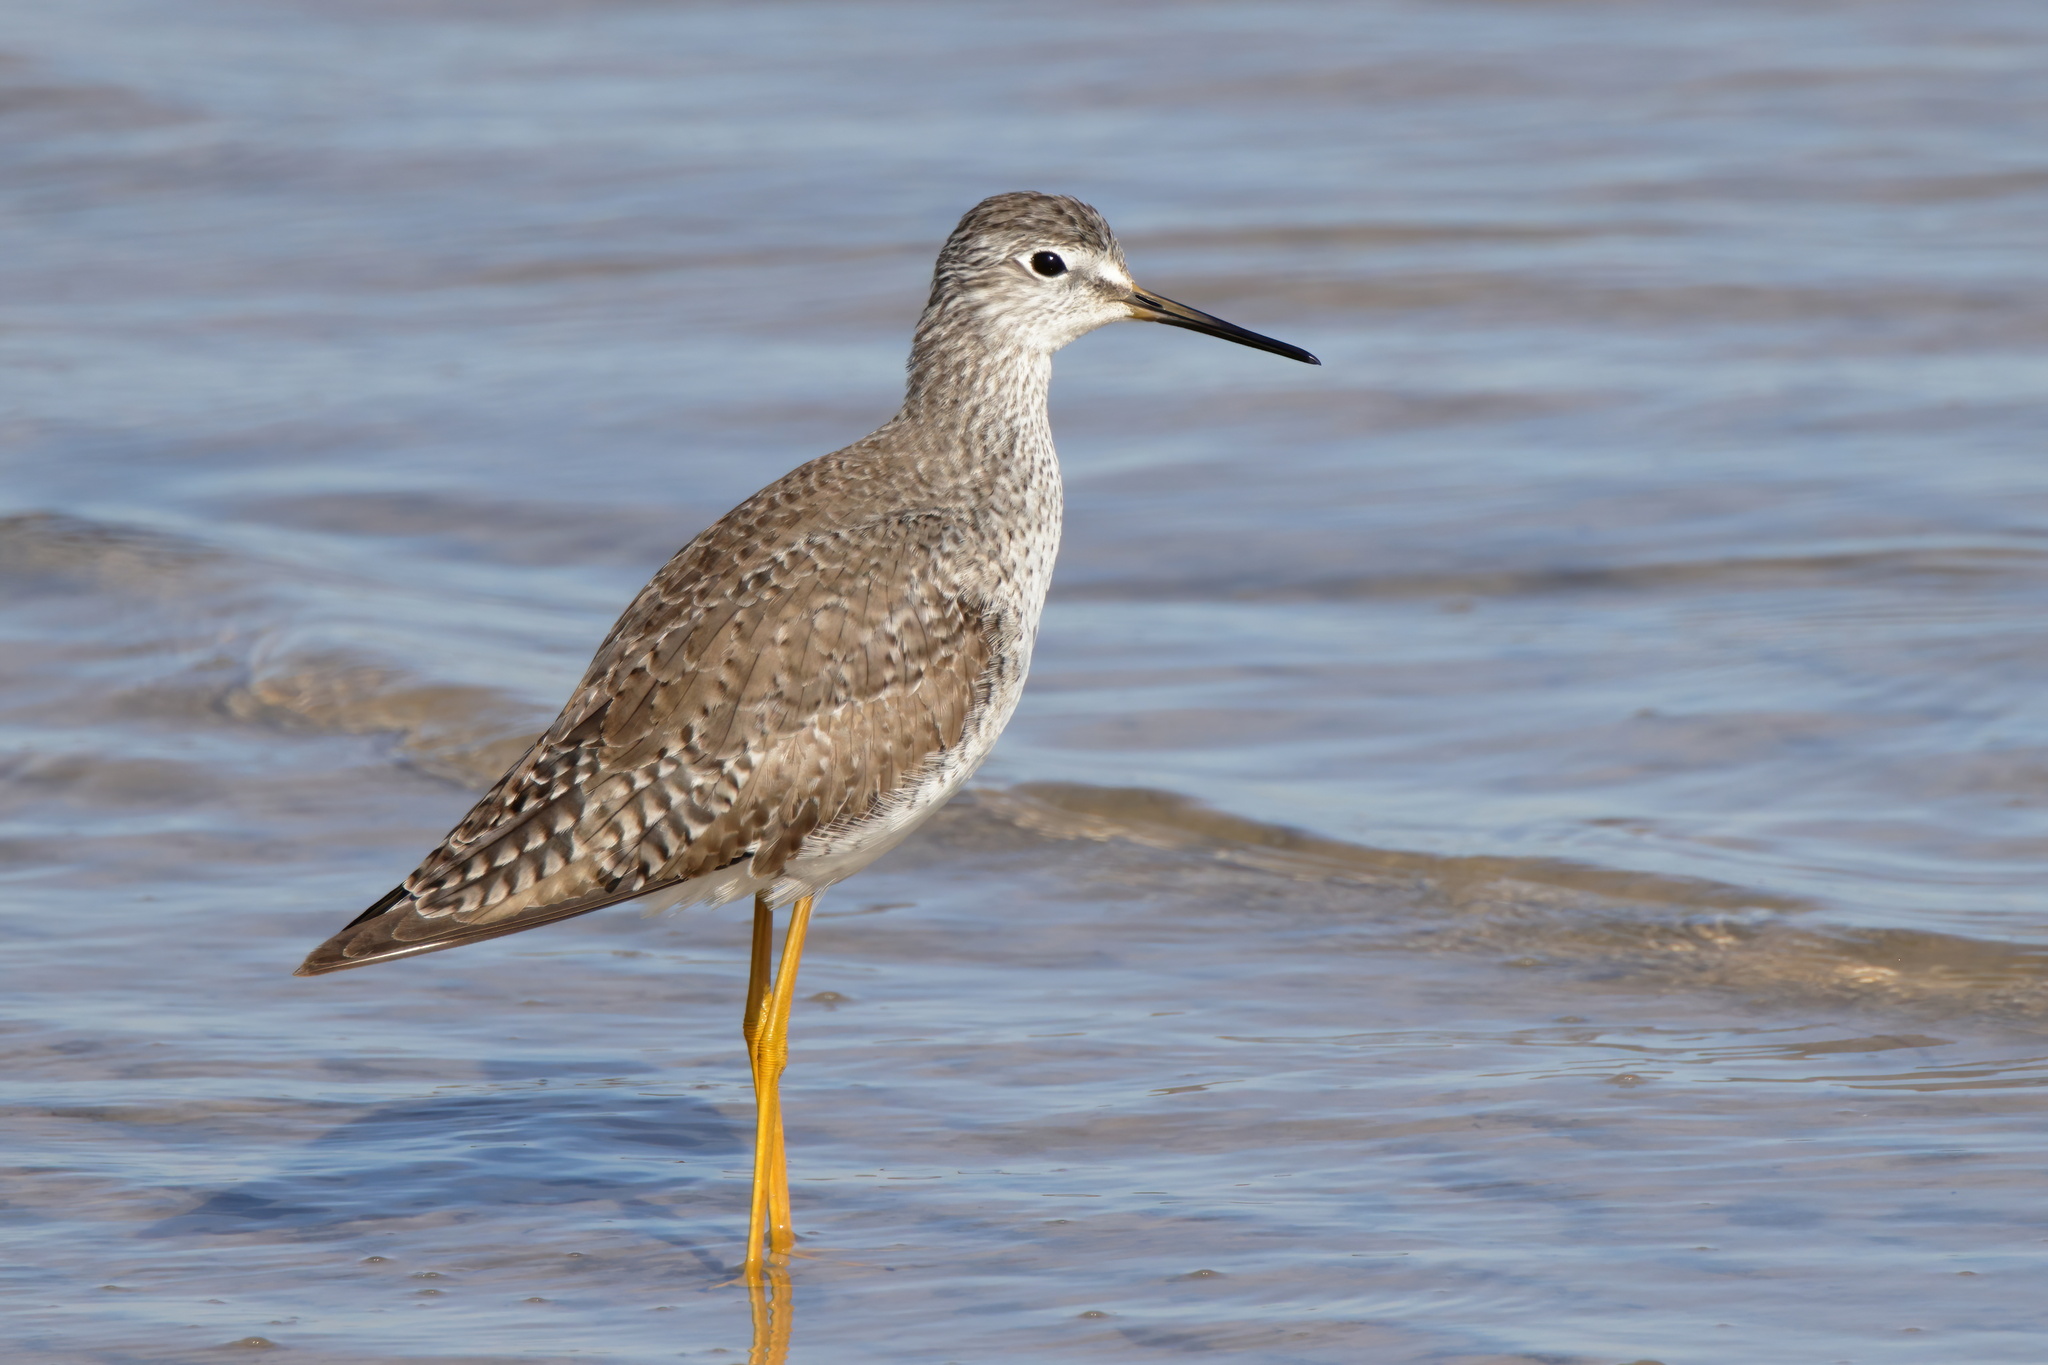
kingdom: Animalia
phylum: Chordata
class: Aves
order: Charadriiformes
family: Scolopacidae
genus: Tringa
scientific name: Tringa flavipes
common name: Lesser yellowlegs
